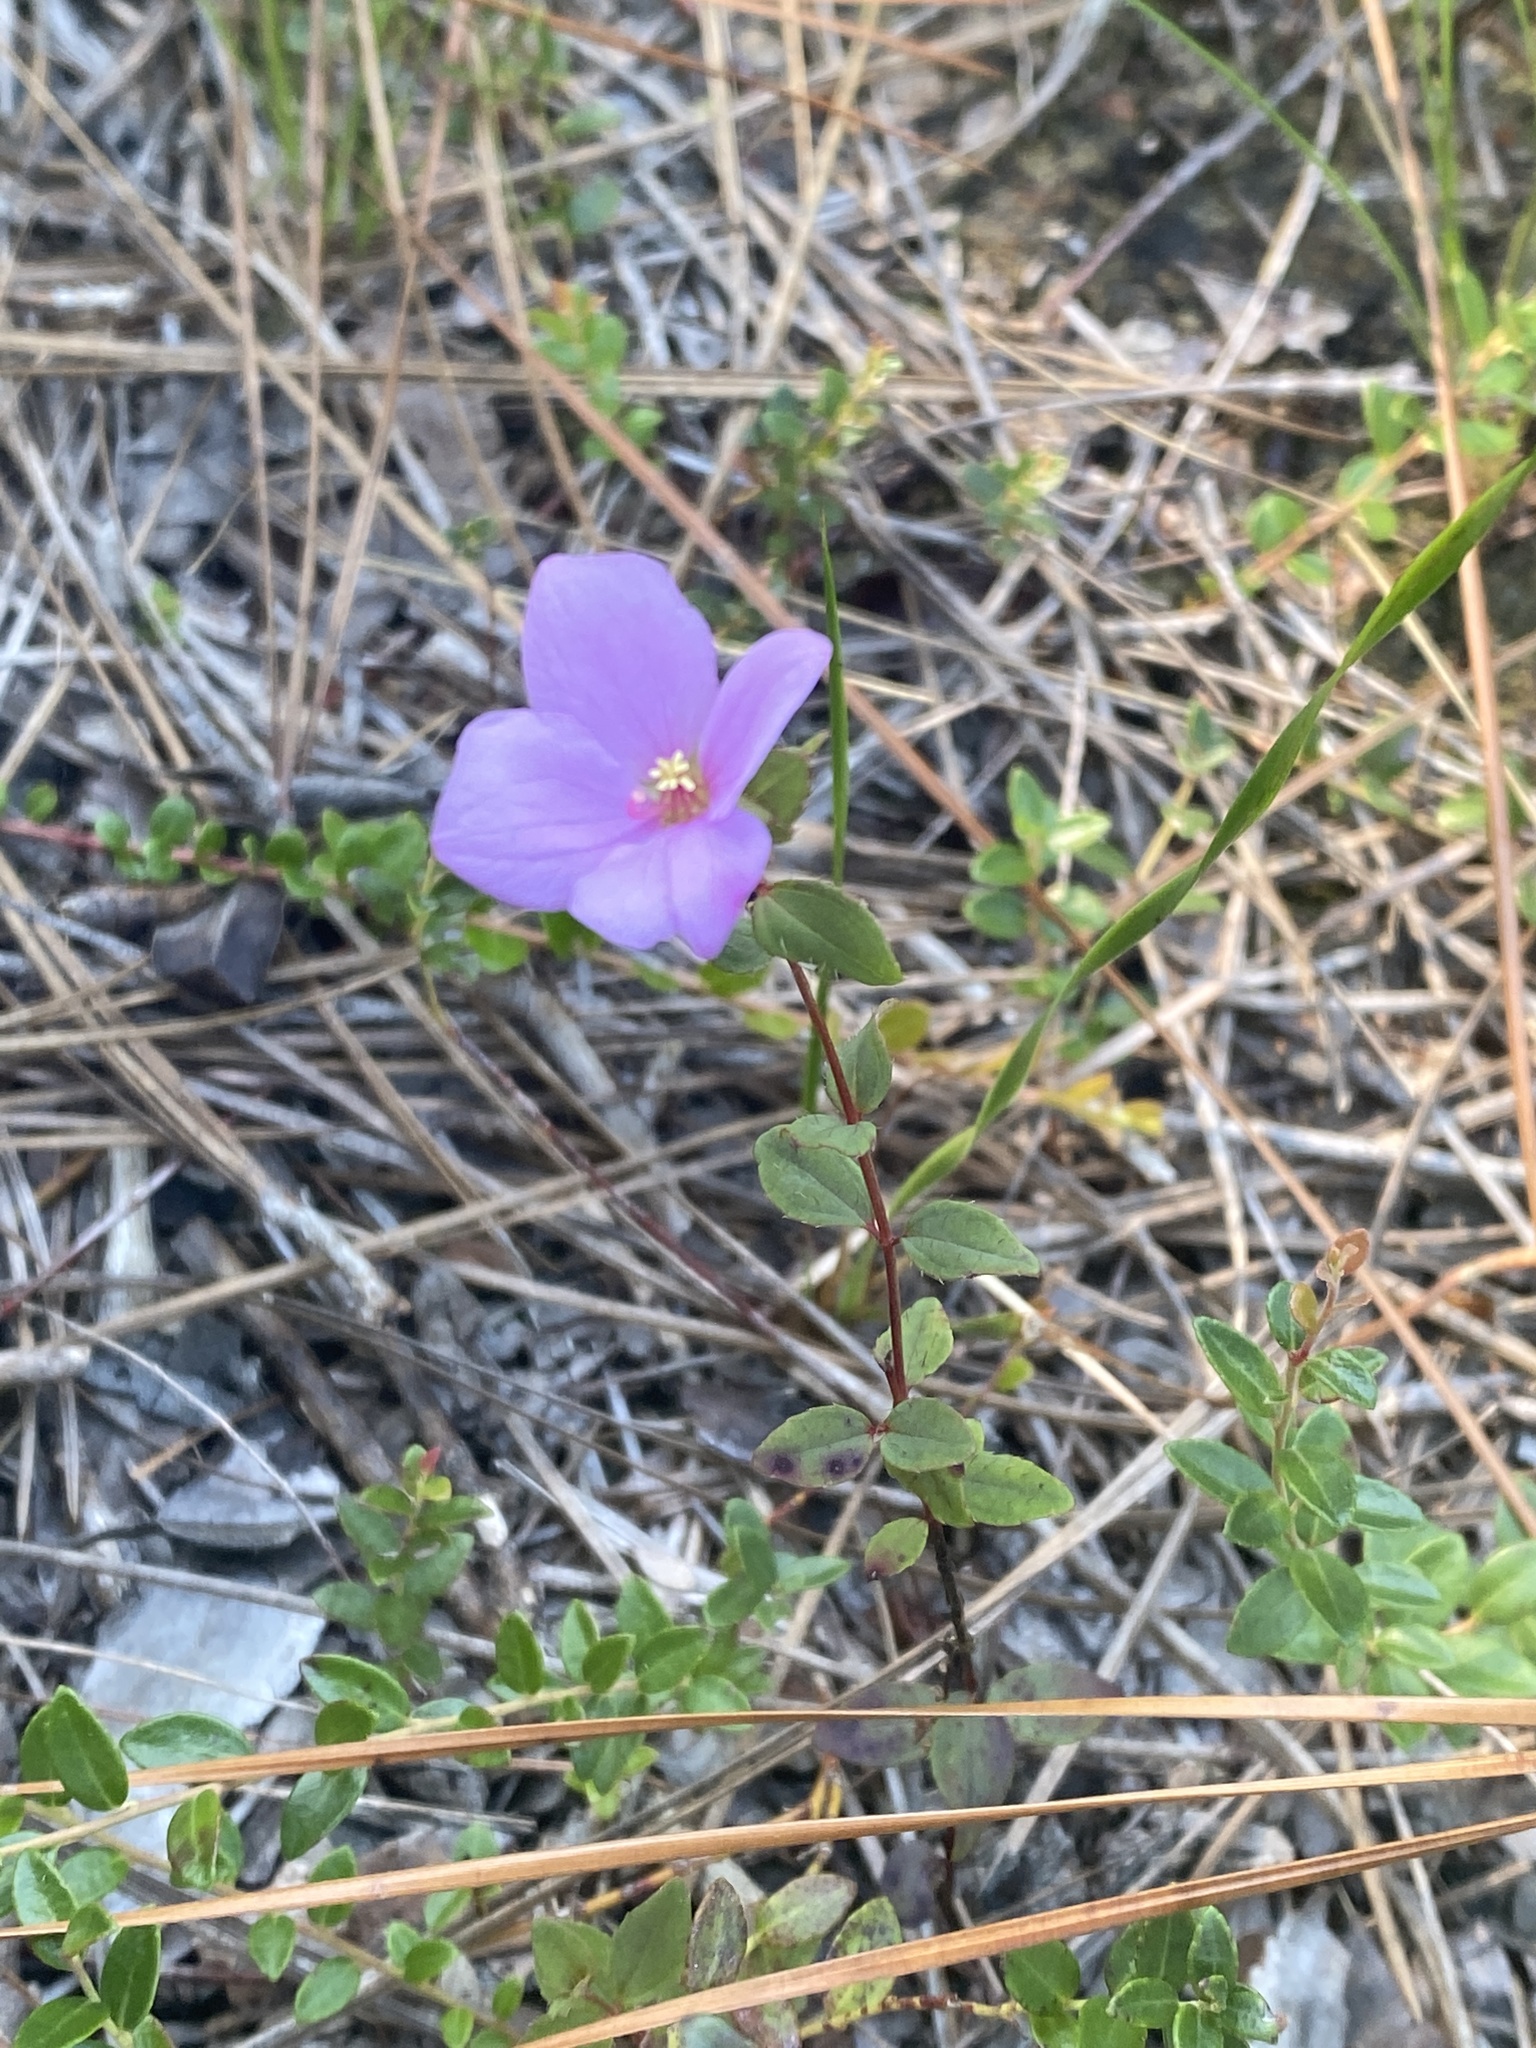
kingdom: Plantae
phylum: Tracheophyta
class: Magnoliopsida
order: Myrtales
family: Melastomataceae
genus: Rhexia
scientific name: Rhexia petiolata
